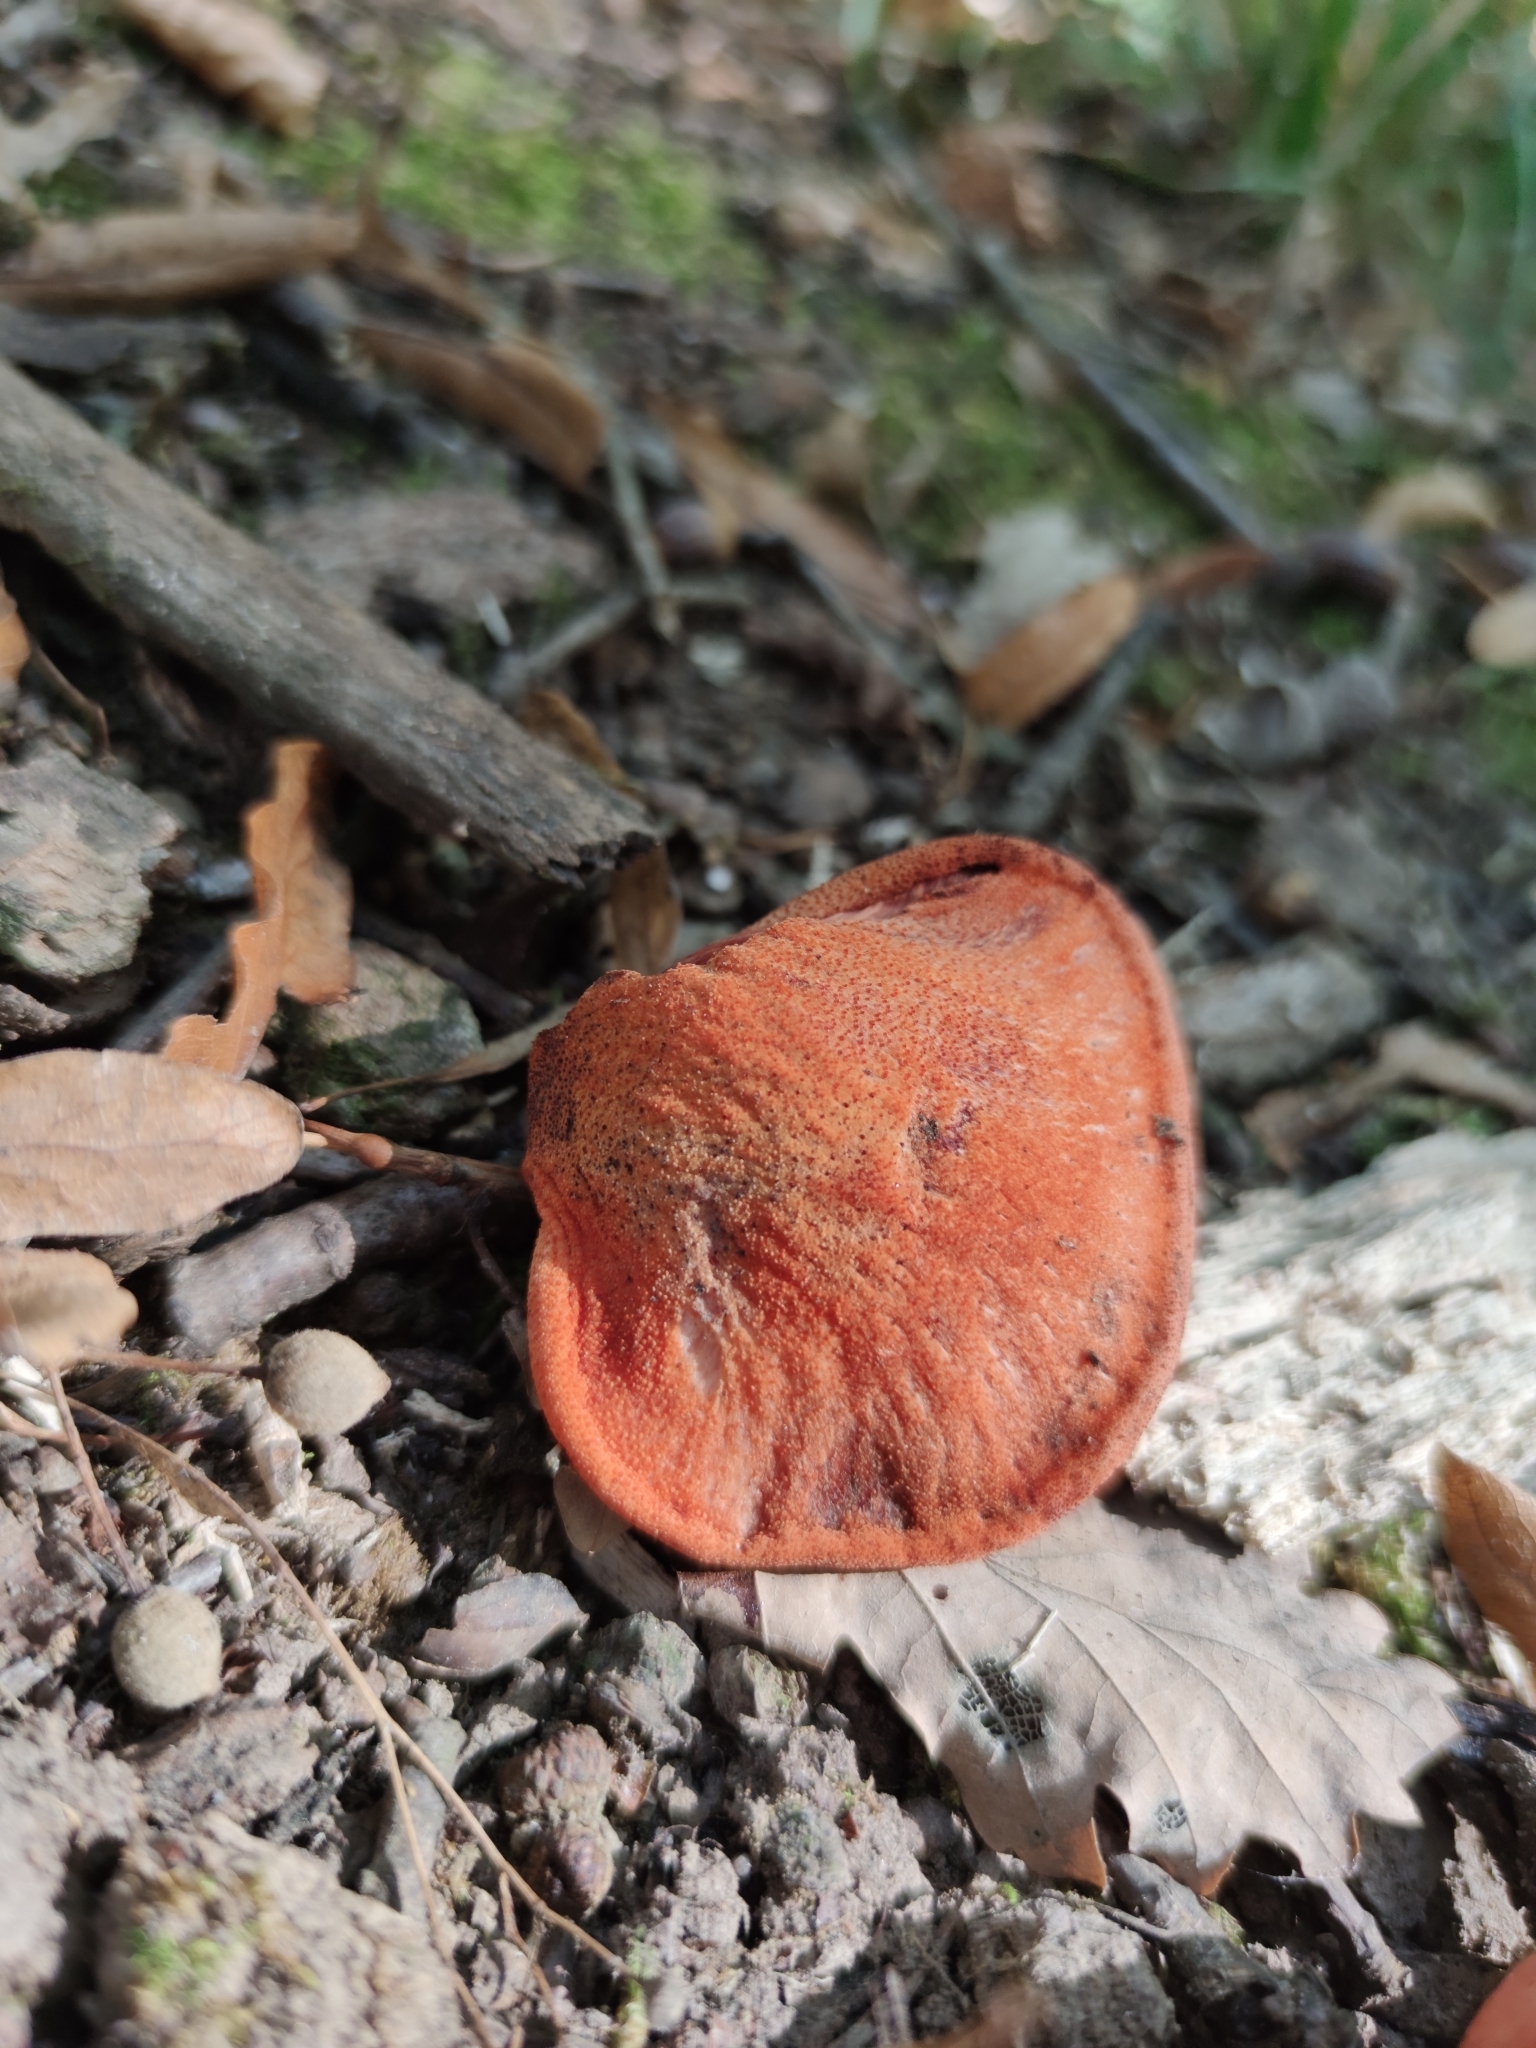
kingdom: Fungi
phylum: Basidiomycota
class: Agaricomycetes
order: Agaricales
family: Fistulinaceae
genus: Fistulina
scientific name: Fistulina hepatica
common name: Beef-steak fungus
